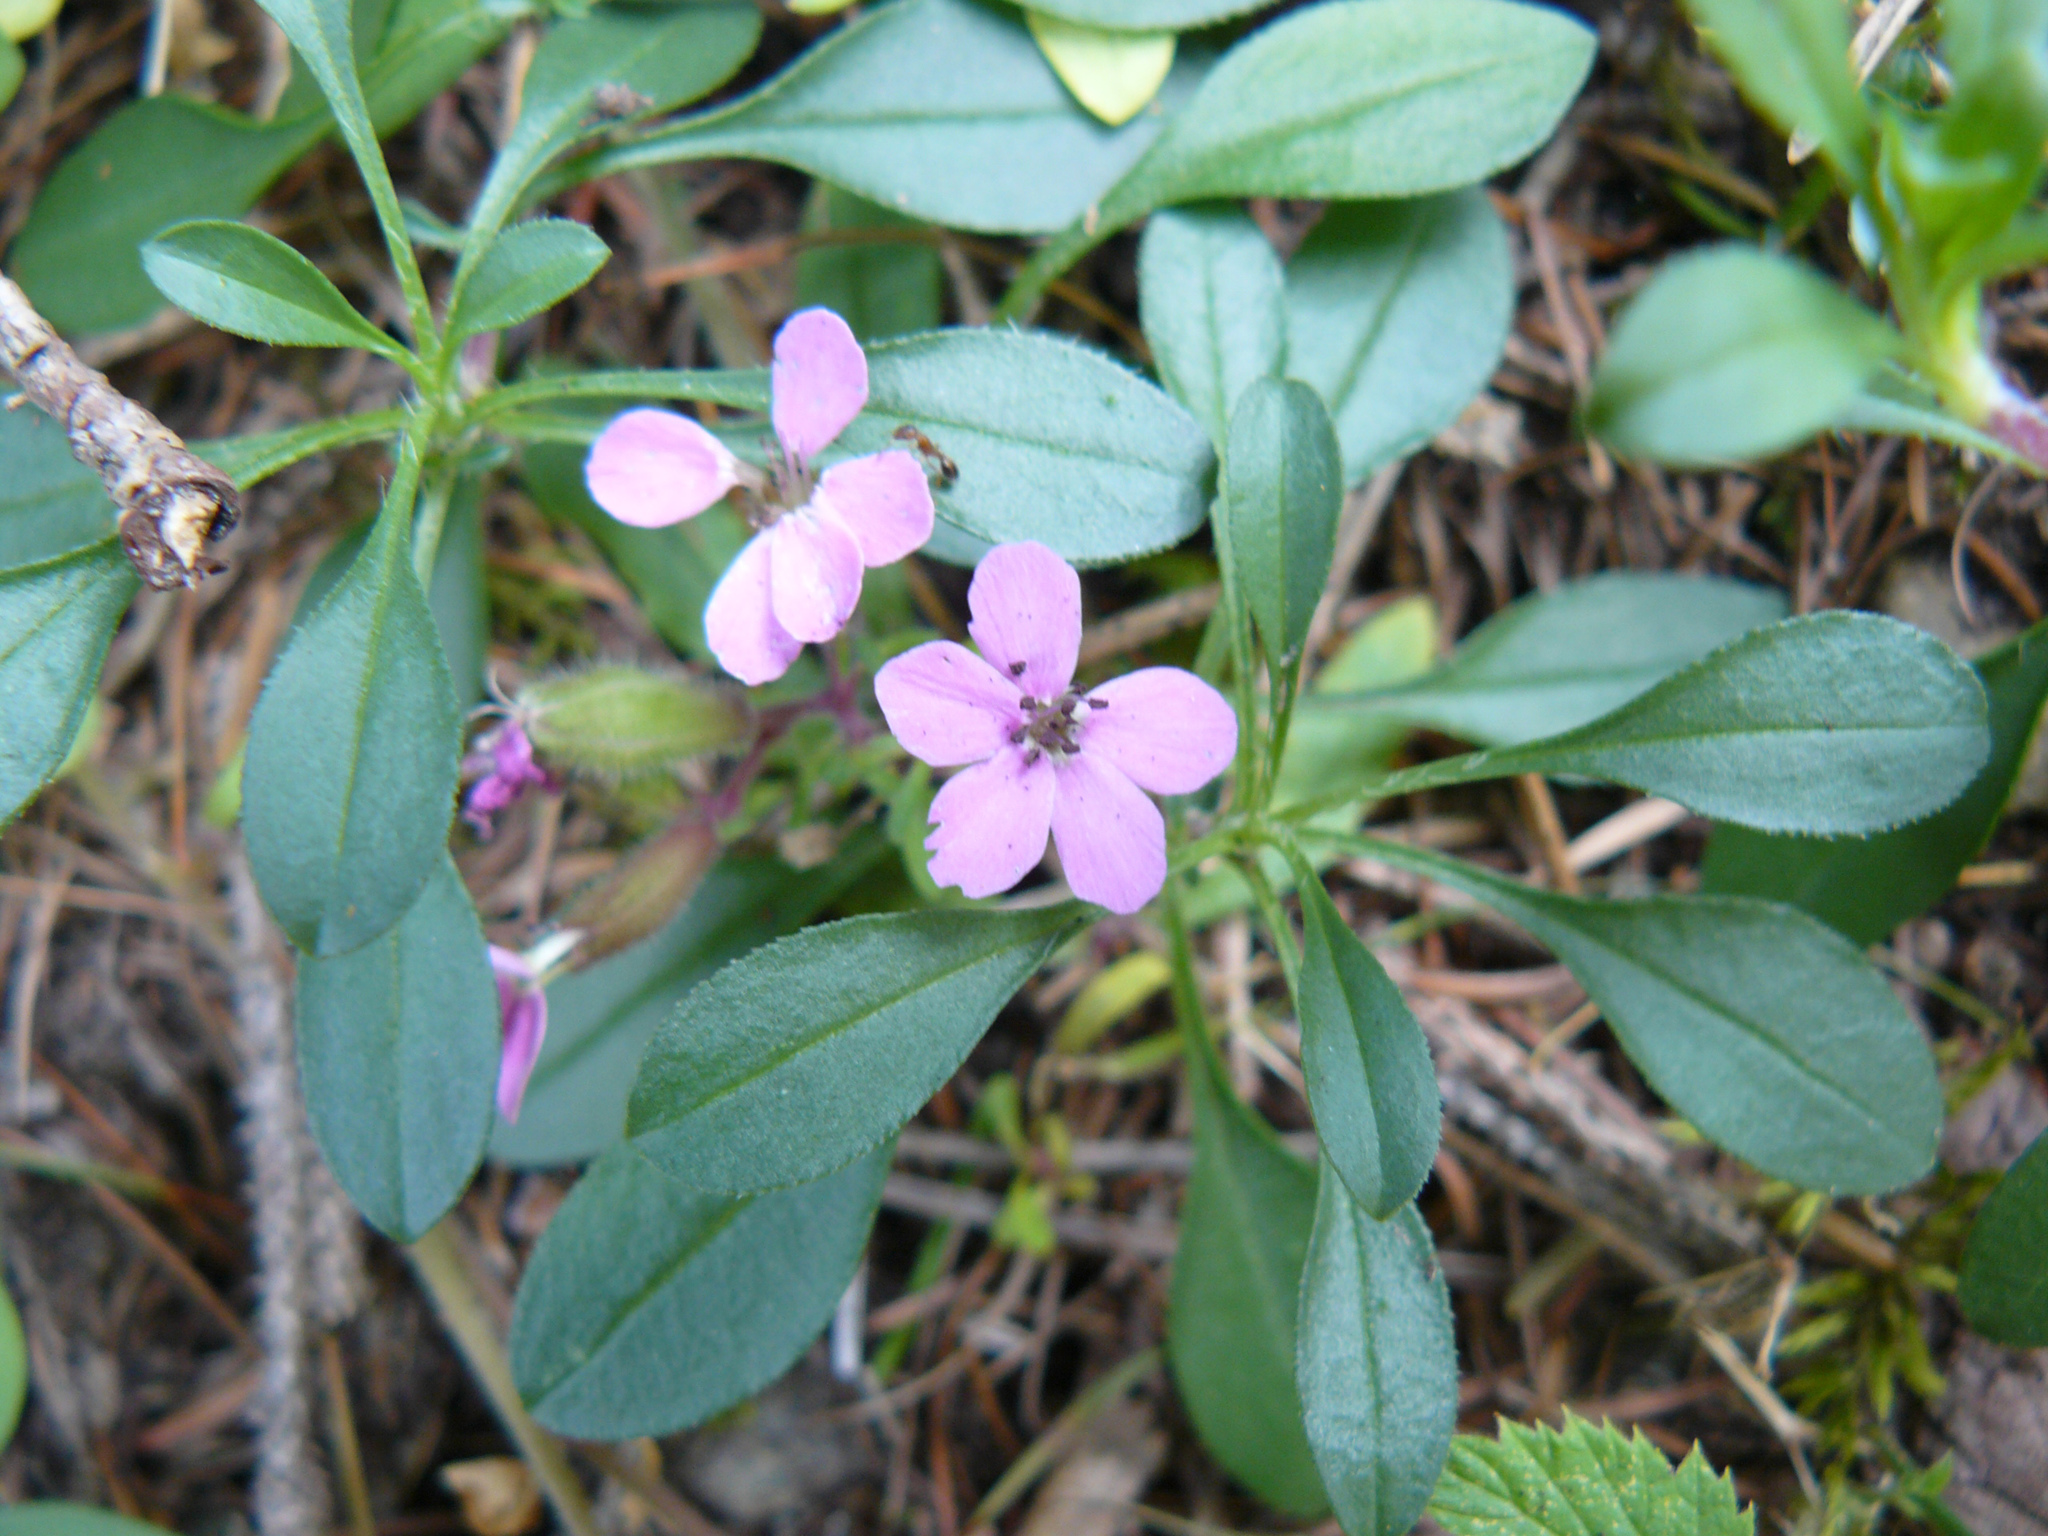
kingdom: Plantae
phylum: Tracheophyta
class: Magnoliopsida
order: Caryophyllales
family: Caryophyllaceae
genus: Saponaria
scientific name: Saponaria ocymoides
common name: Rock soapwort
